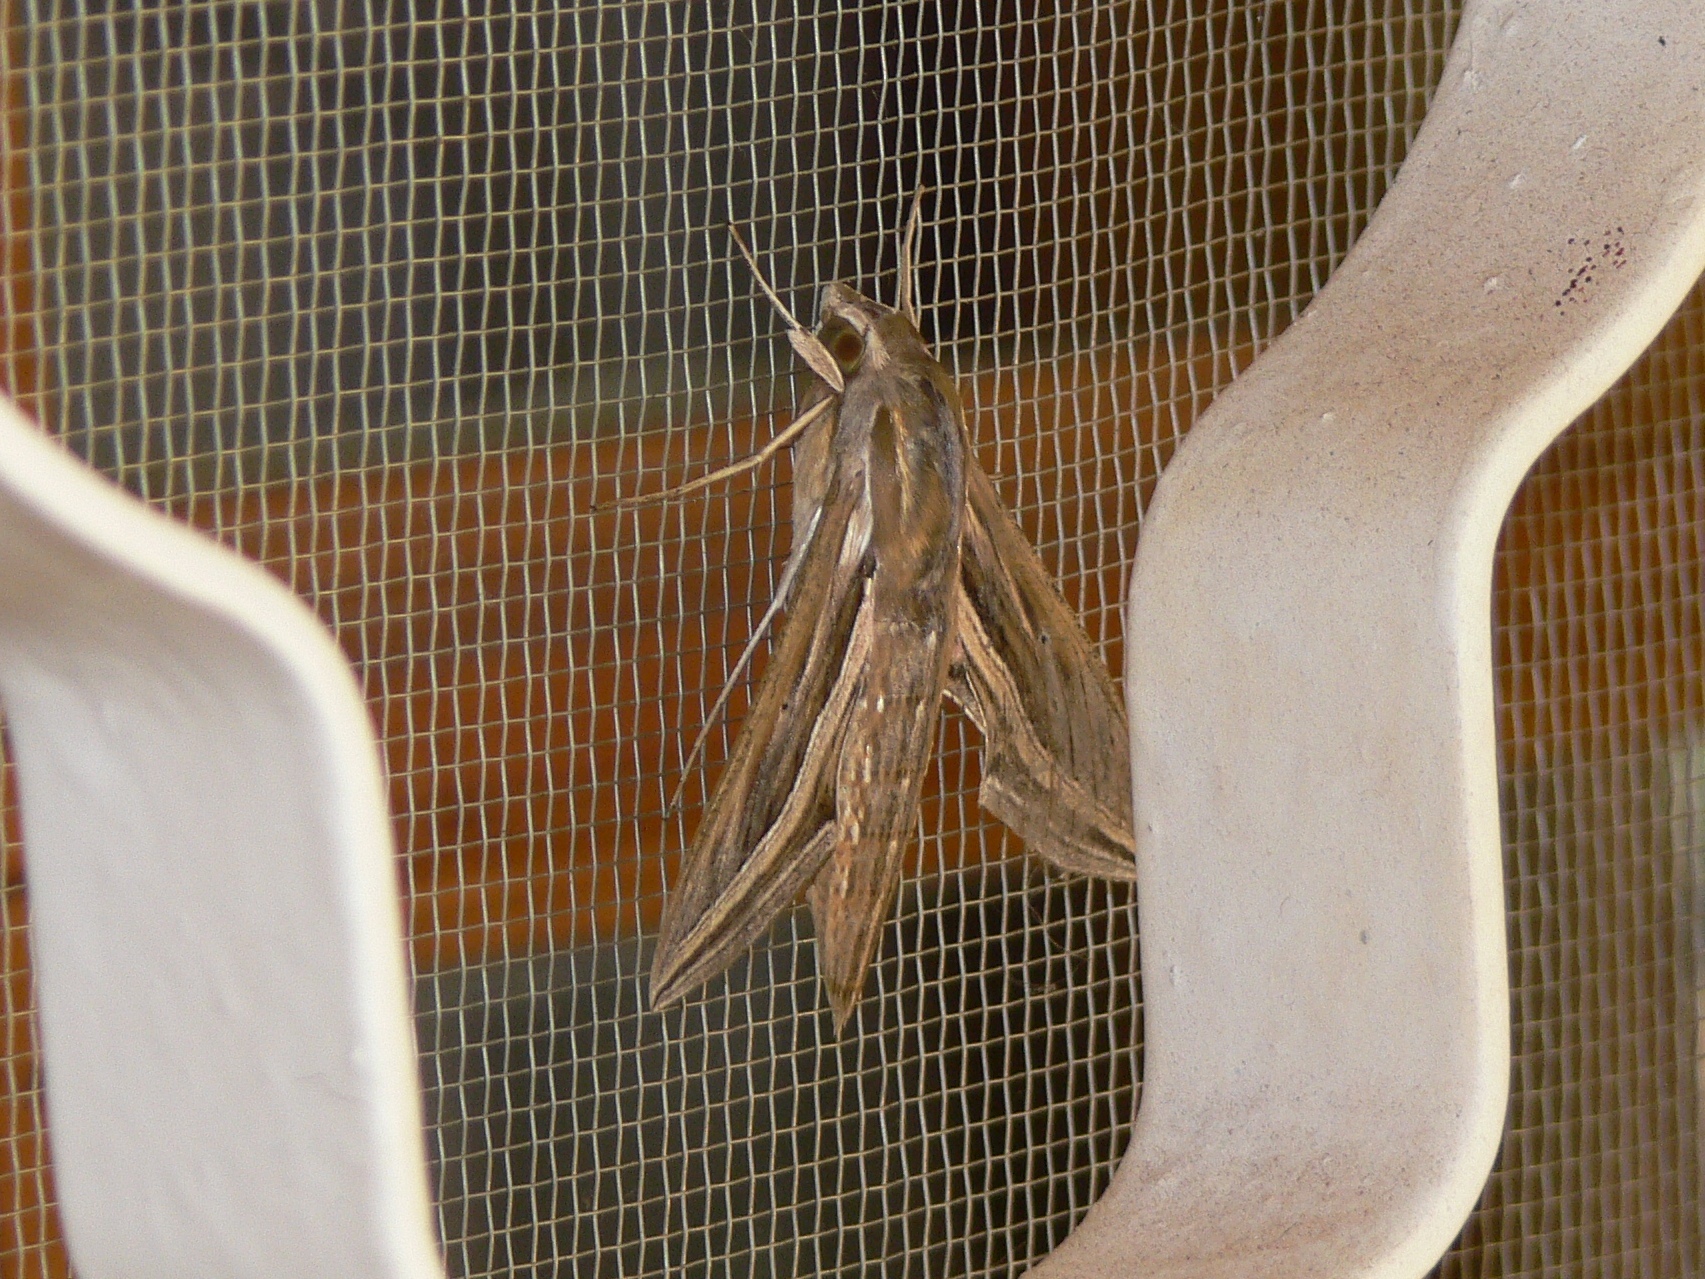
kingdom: Animalia
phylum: Arthropoda
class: Insecta
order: Lepidoptera
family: Sphingidae
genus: Hippotion
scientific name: Hippotion celerio
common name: Silver-striped hawk-moth
